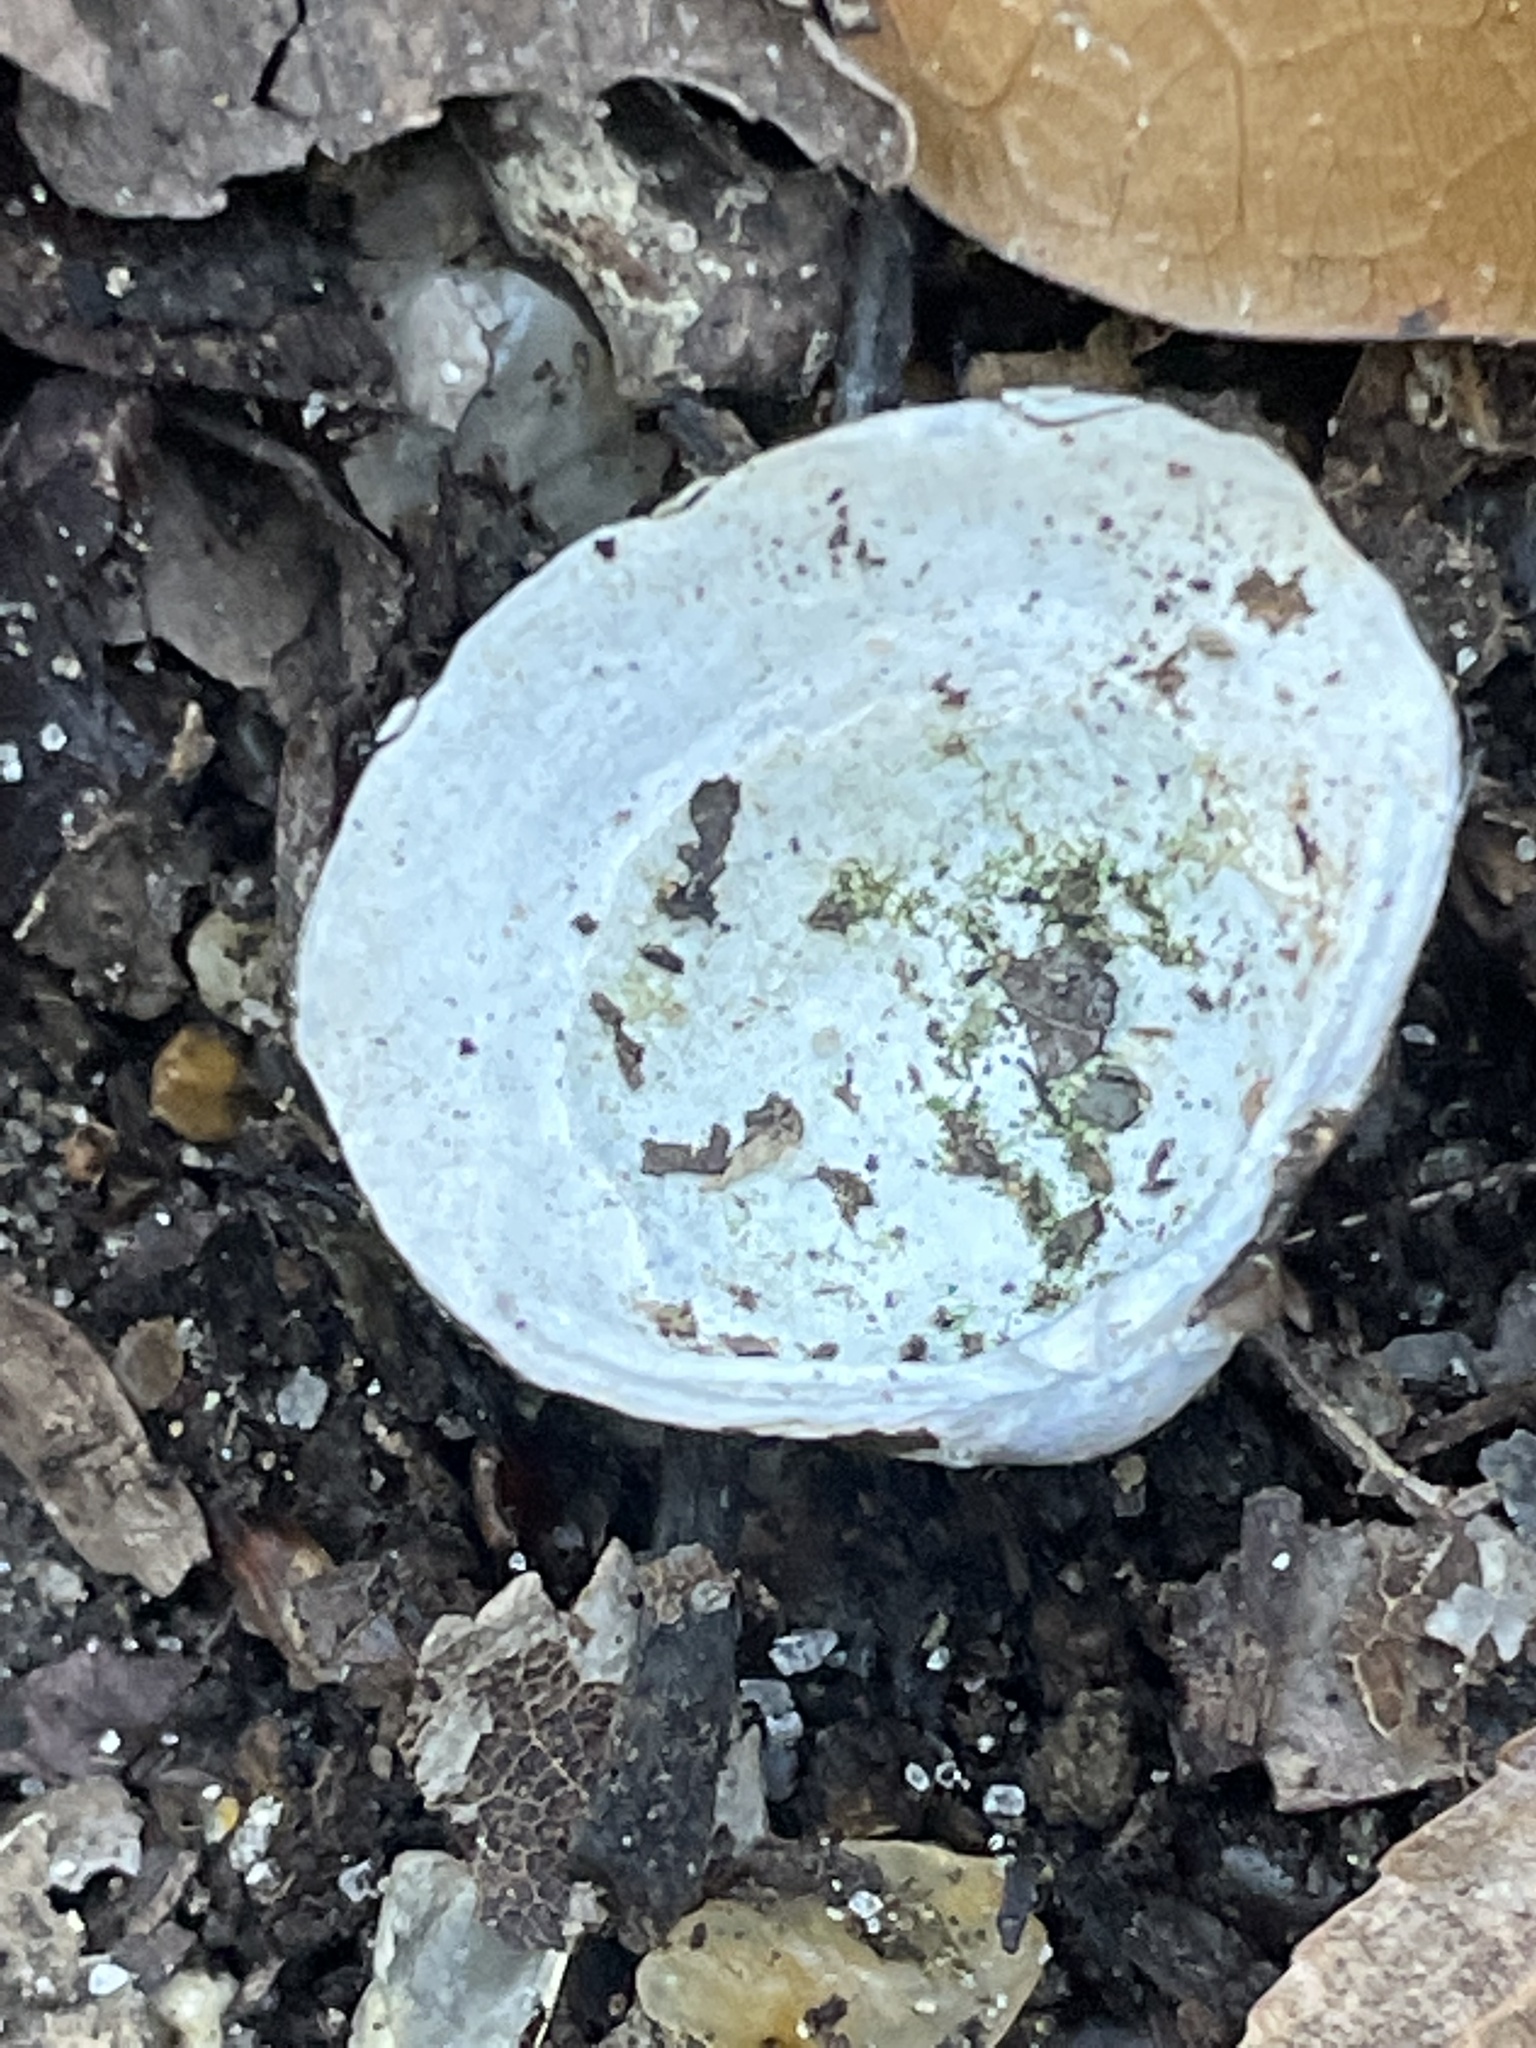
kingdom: Animalia
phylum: Mollusca
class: Bivalvia
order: Venerida
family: Cyrenidae
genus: Corbicula
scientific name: Corbicula fluminea
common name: Asian clam
